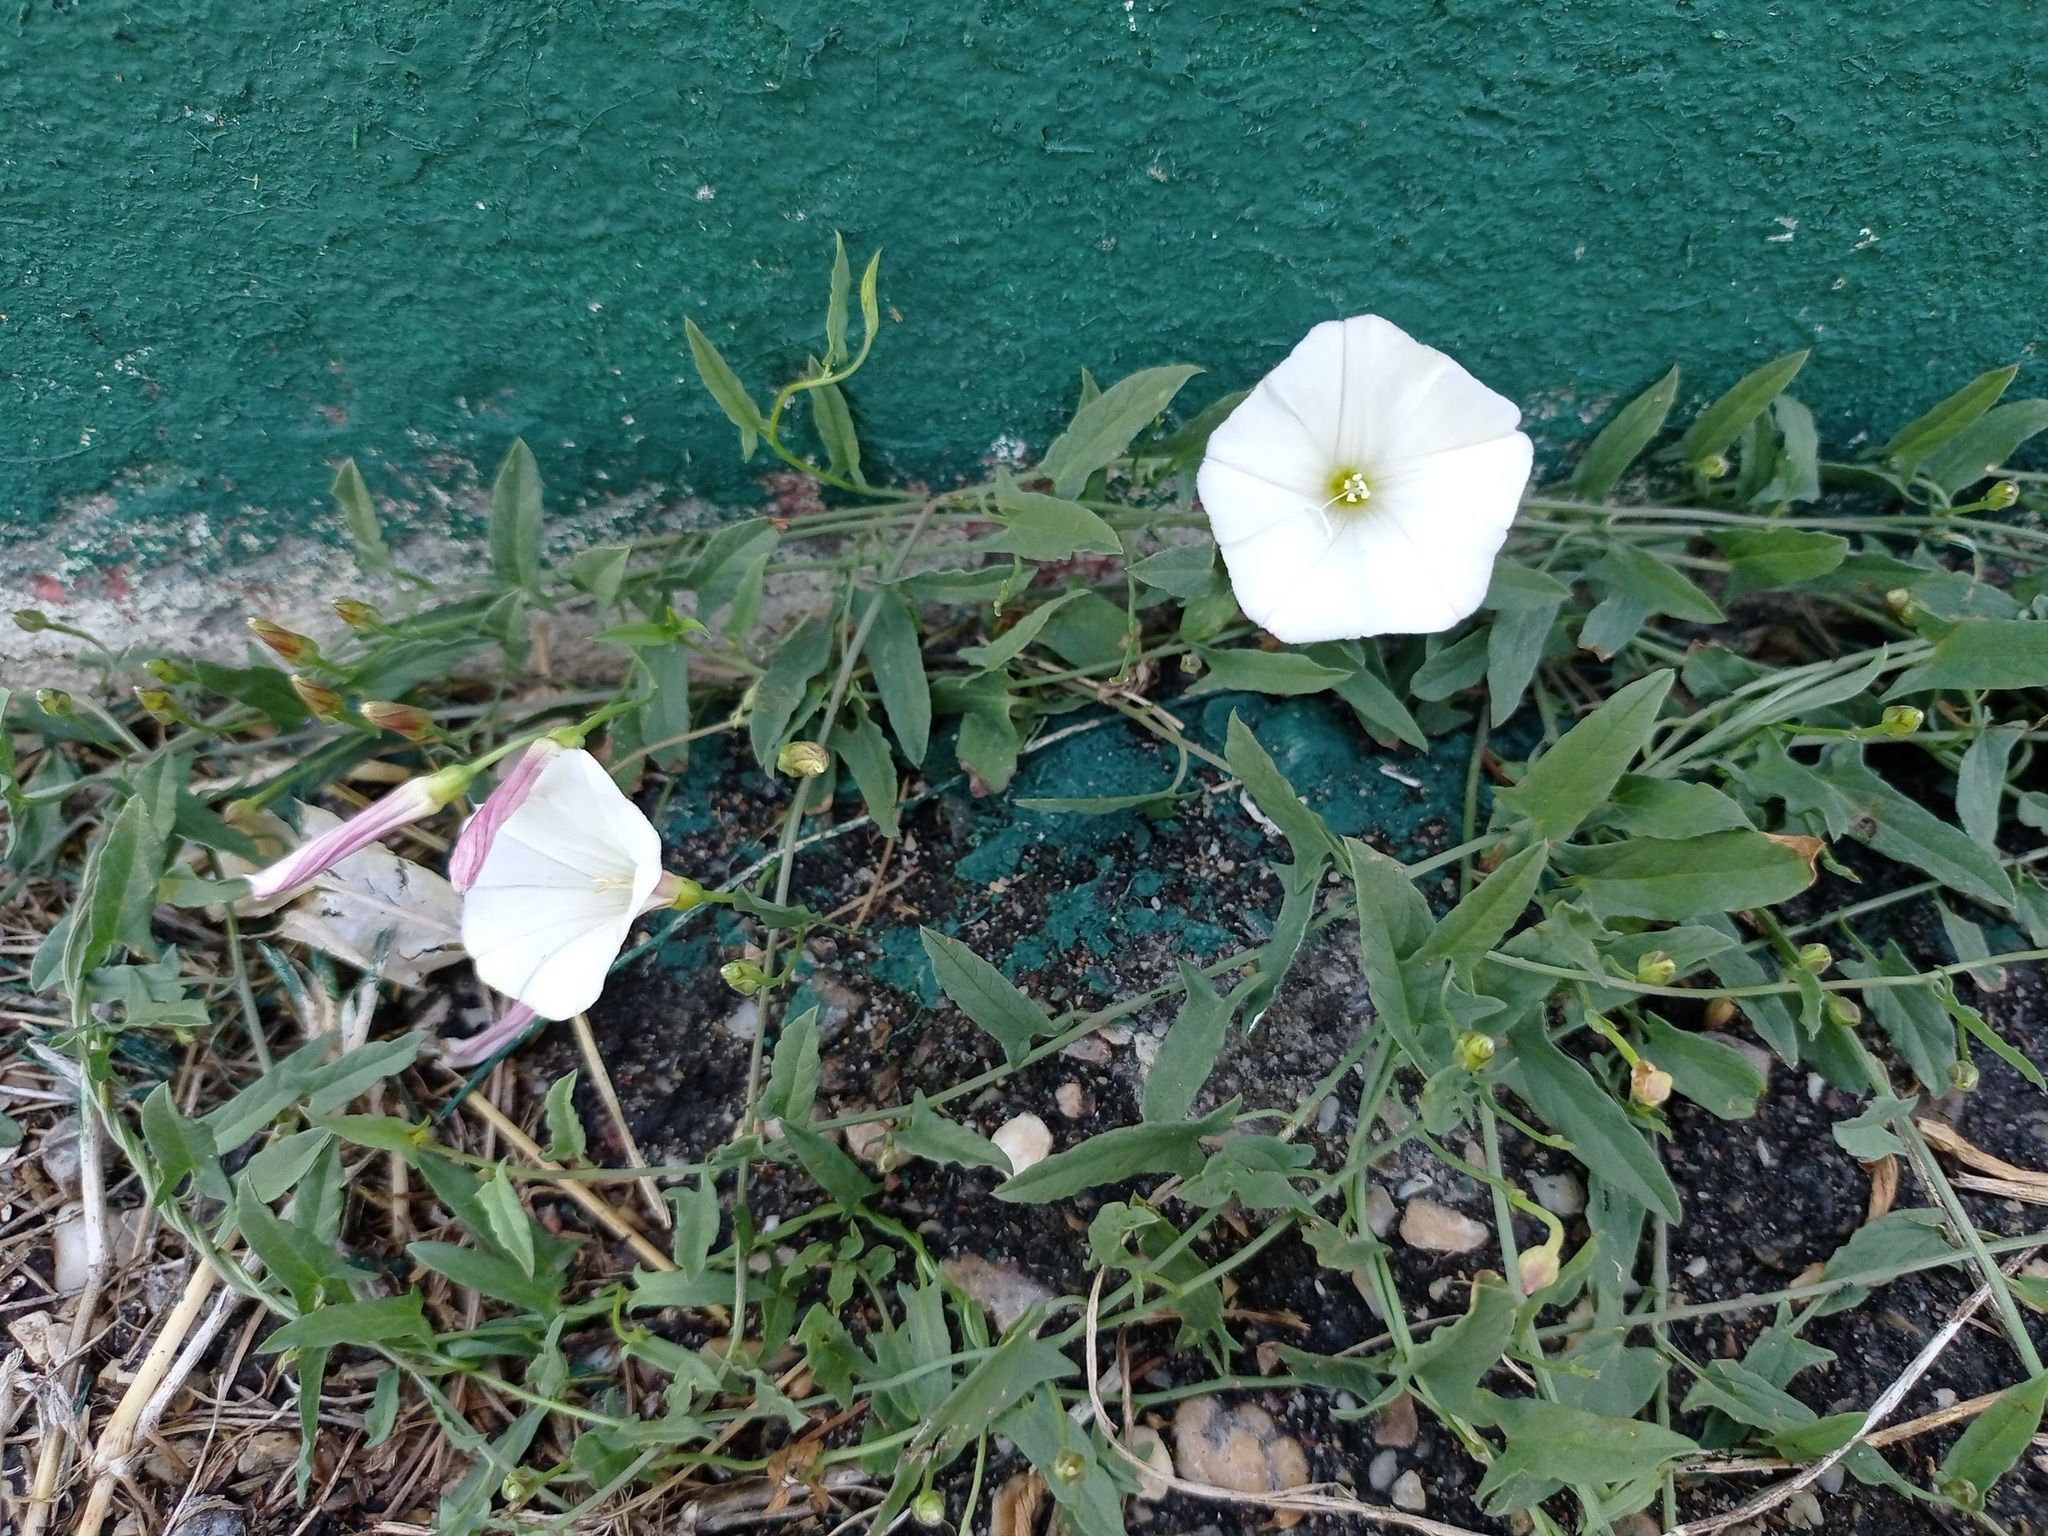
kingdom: Plantae
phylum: Tracheophyta
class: Magnoliopsida
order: Solanales
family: Convolvulaceae
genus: Convolvulus
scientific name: Convolvulus arvensis
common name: Field bindweed
